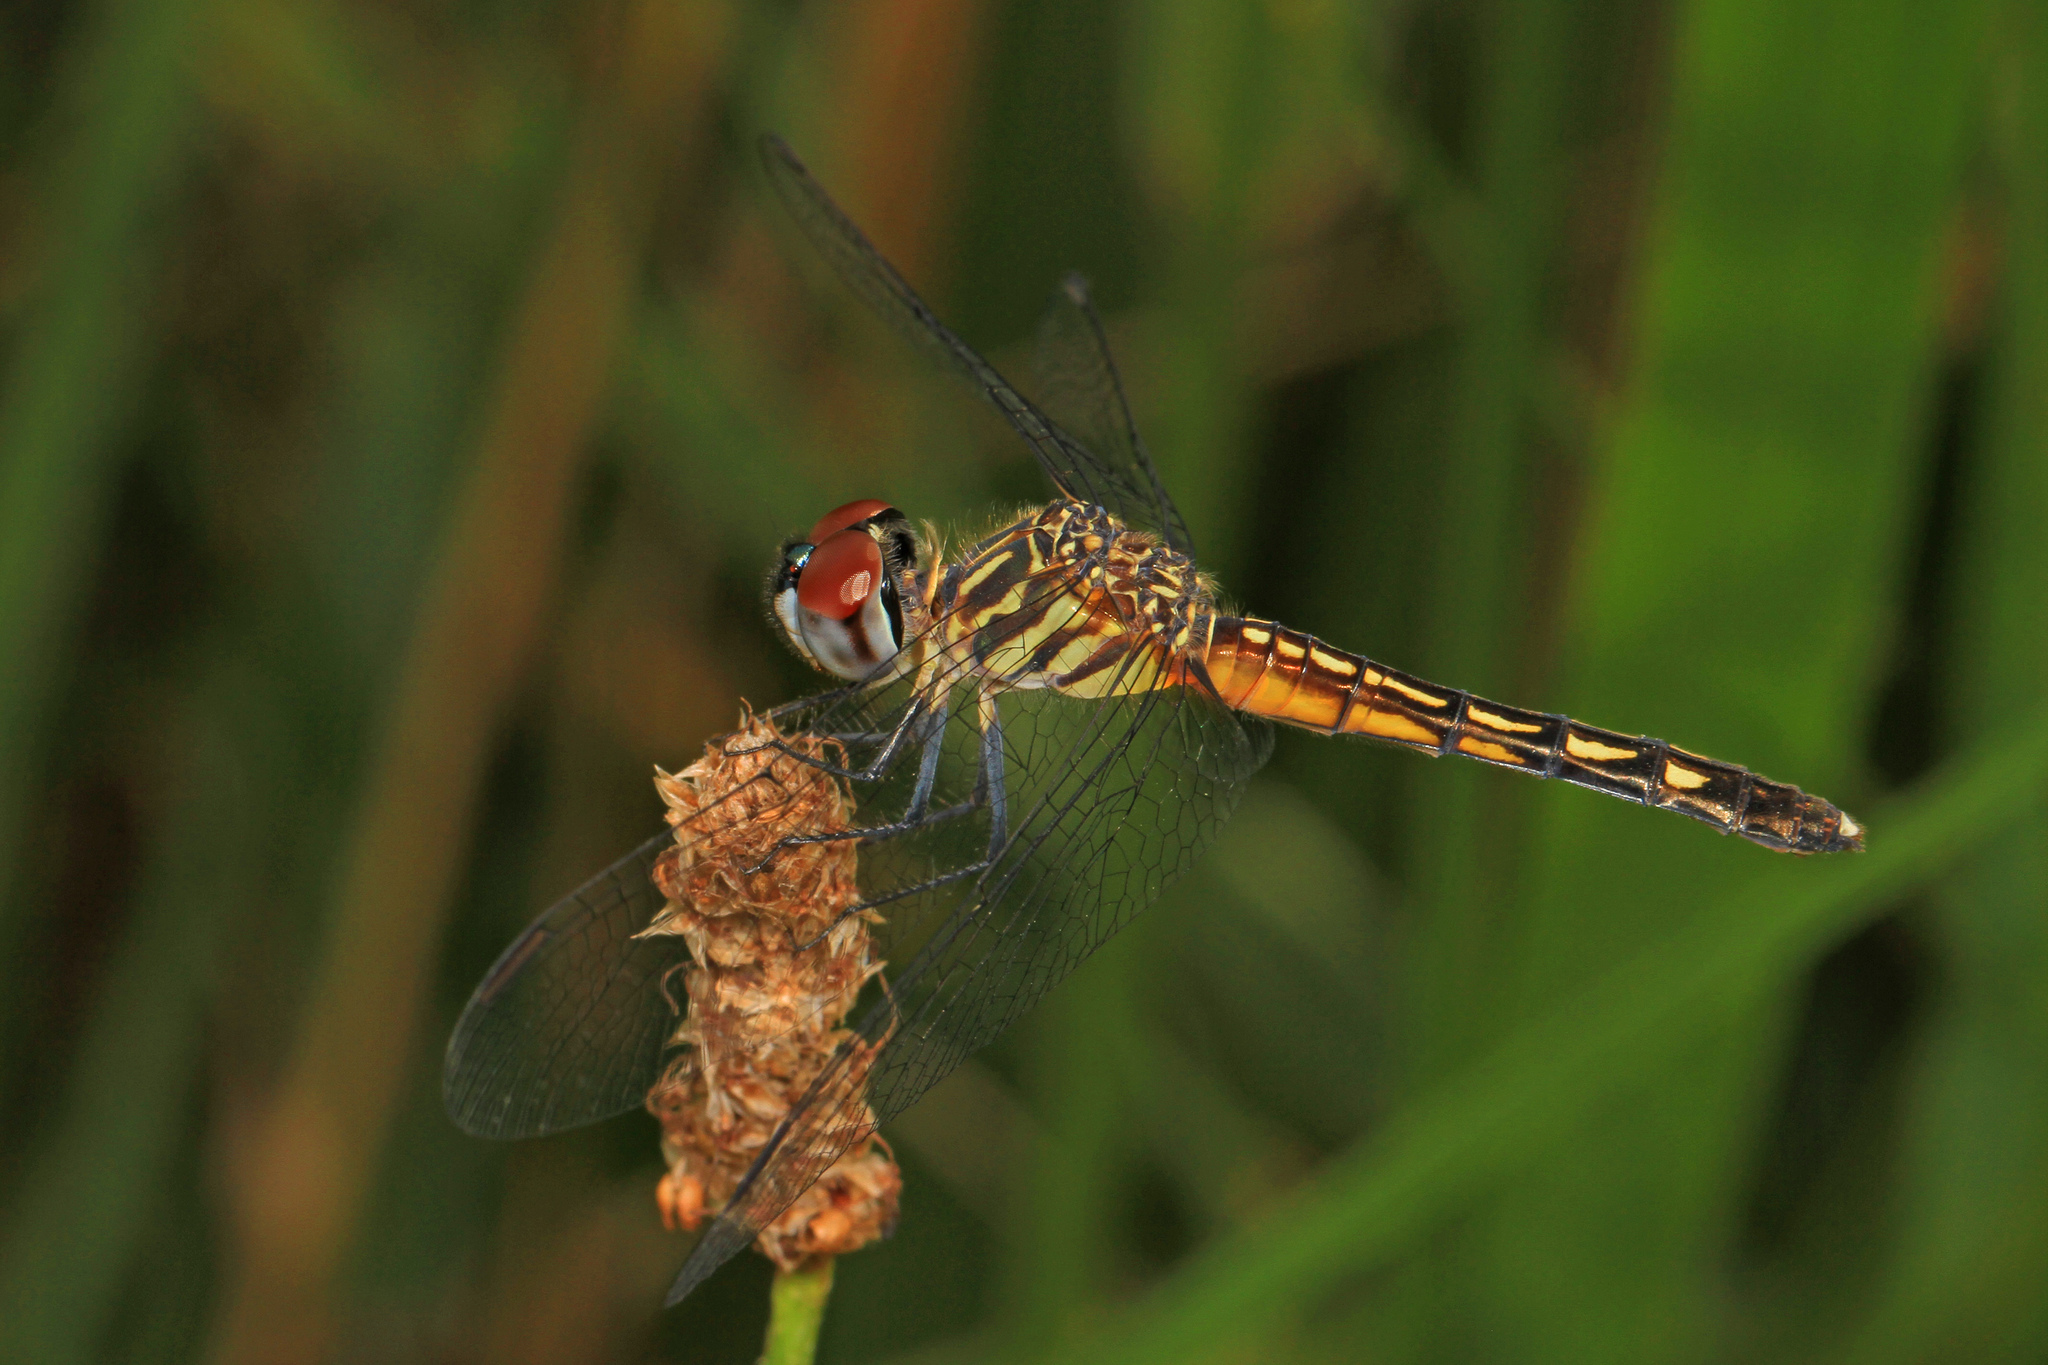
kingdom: Animalia
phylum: Arthropoda
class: Insecta
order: Odonata
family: Libellulidae
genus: Pachydiplax
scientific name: Pachydiplax longipennis
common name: Blue dasher
